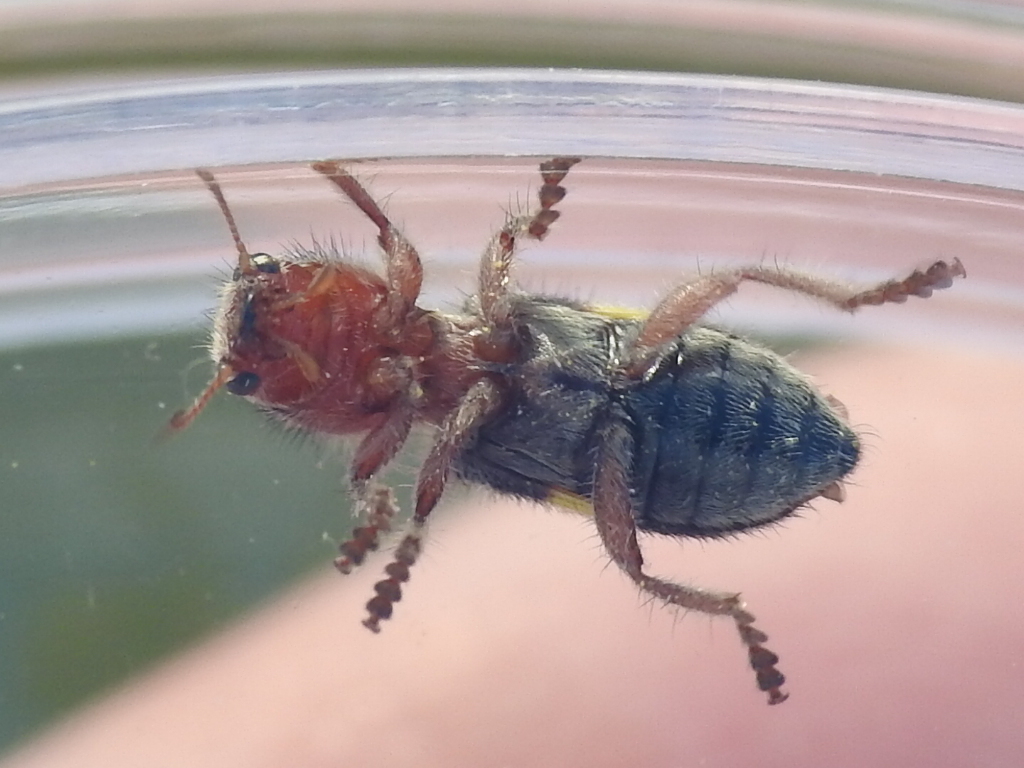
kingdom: Animalia
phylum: Arthropoda
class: Insecta
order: Coleoptera
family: Cleridae
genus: Enoclerus
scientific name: Enoclerus laetus
